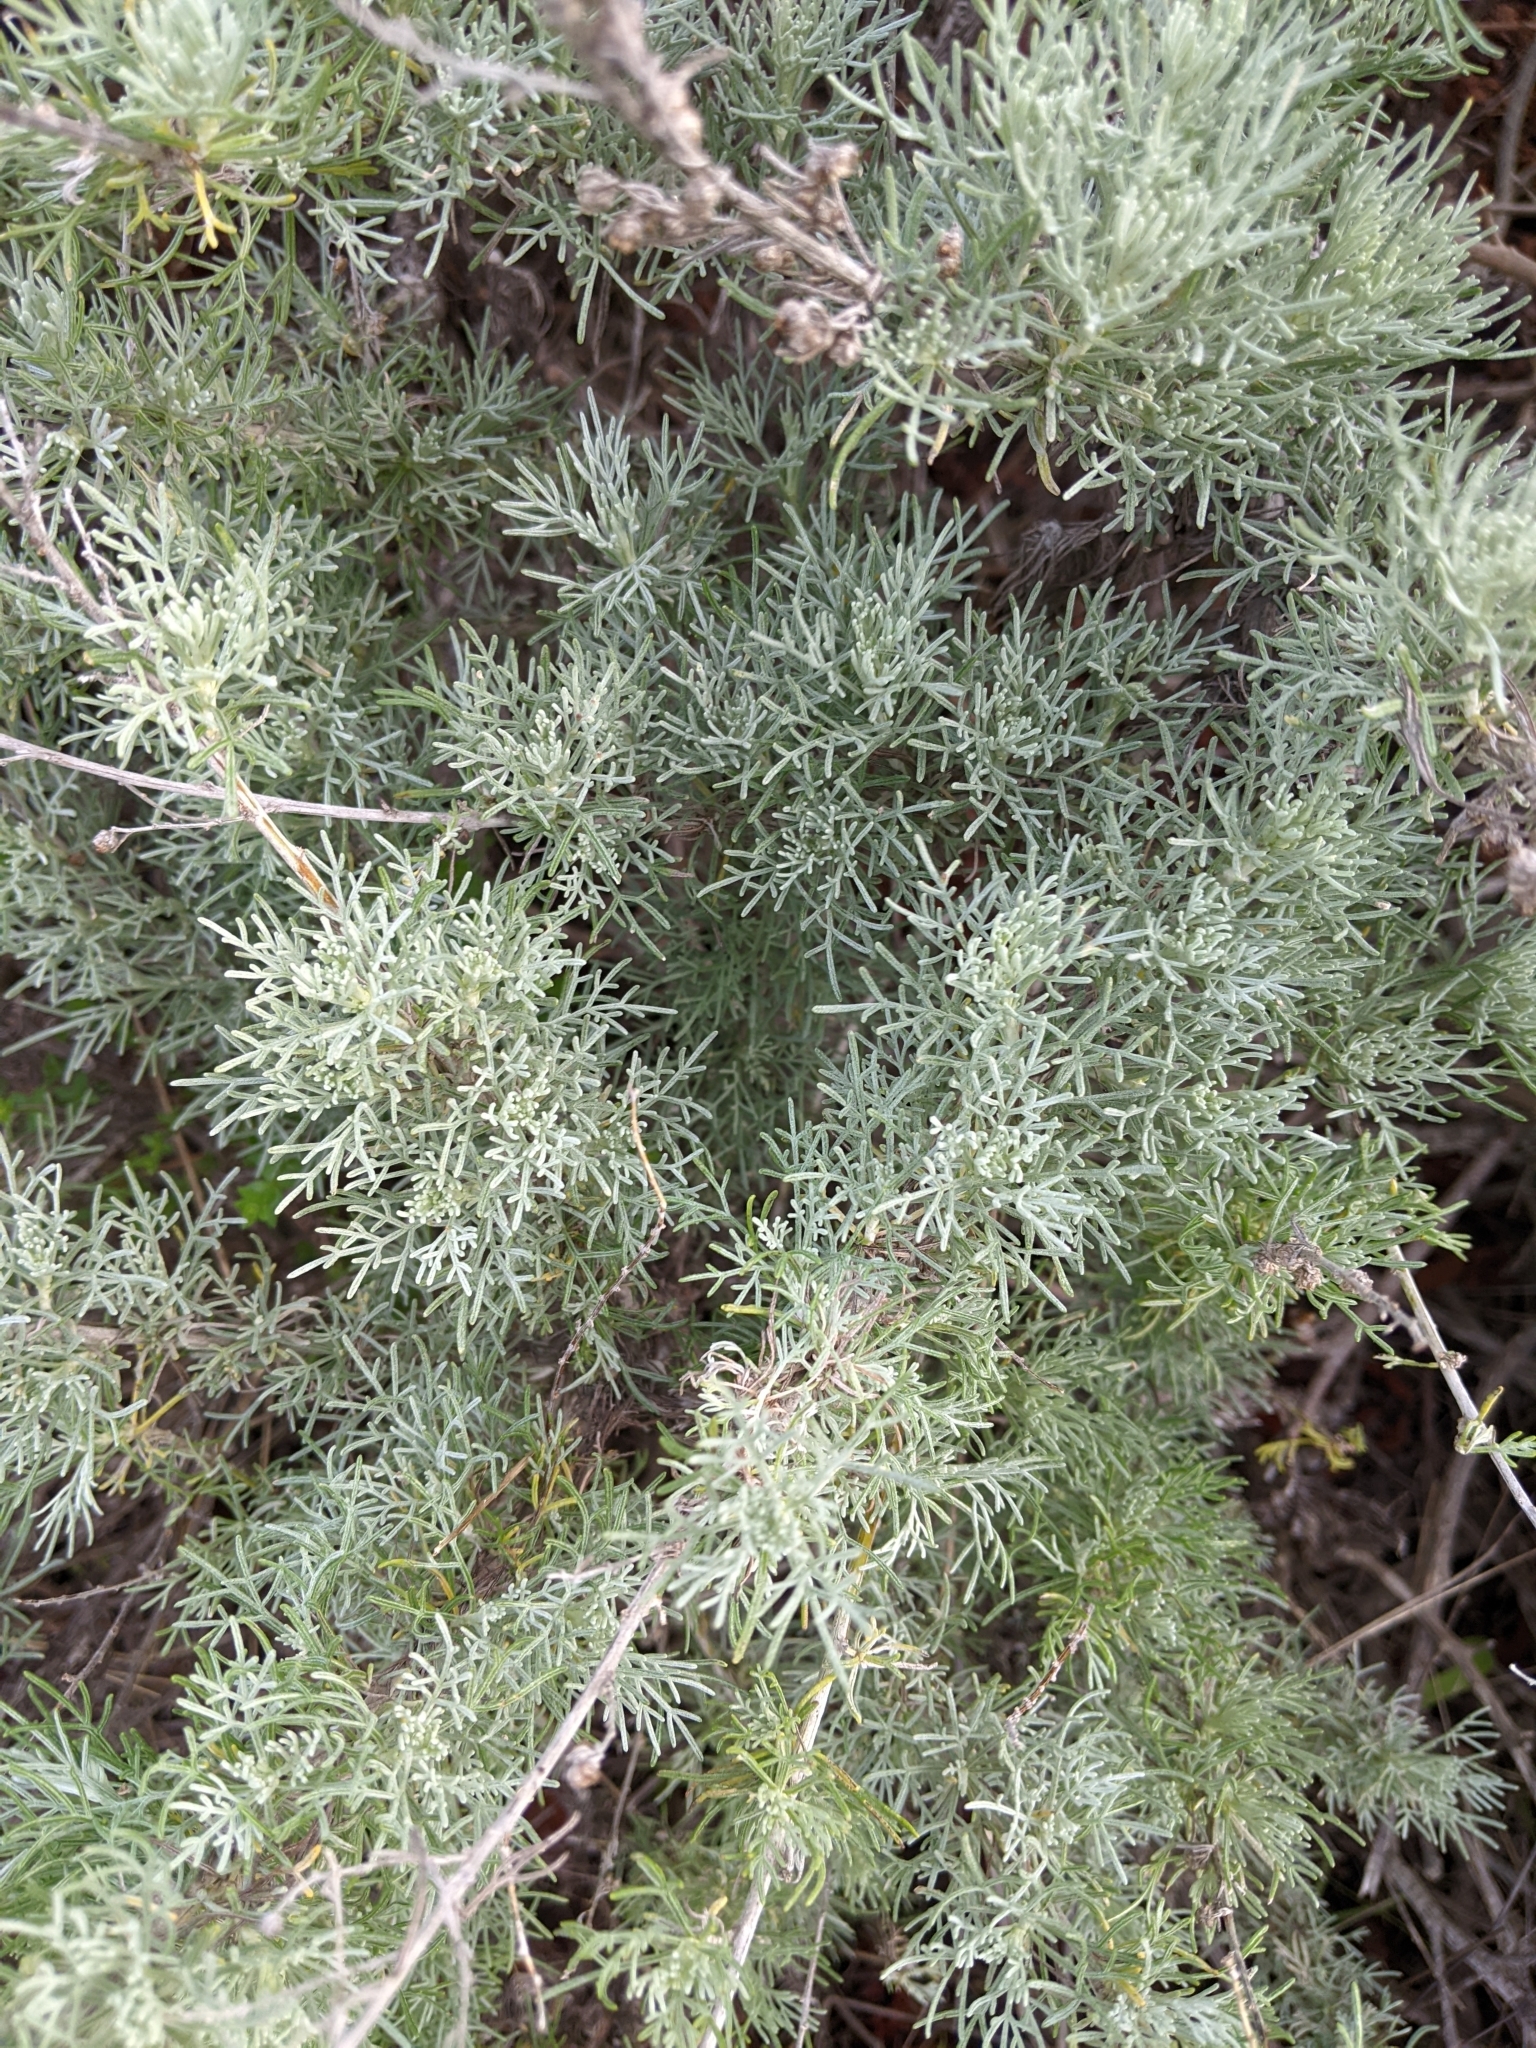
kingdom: Plantae
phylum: Tracheophyta
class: Magnoliopsida
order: Asterales
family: Asteraceae
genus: Artemisia
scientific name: Artemisia californica
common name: California sagebrush
